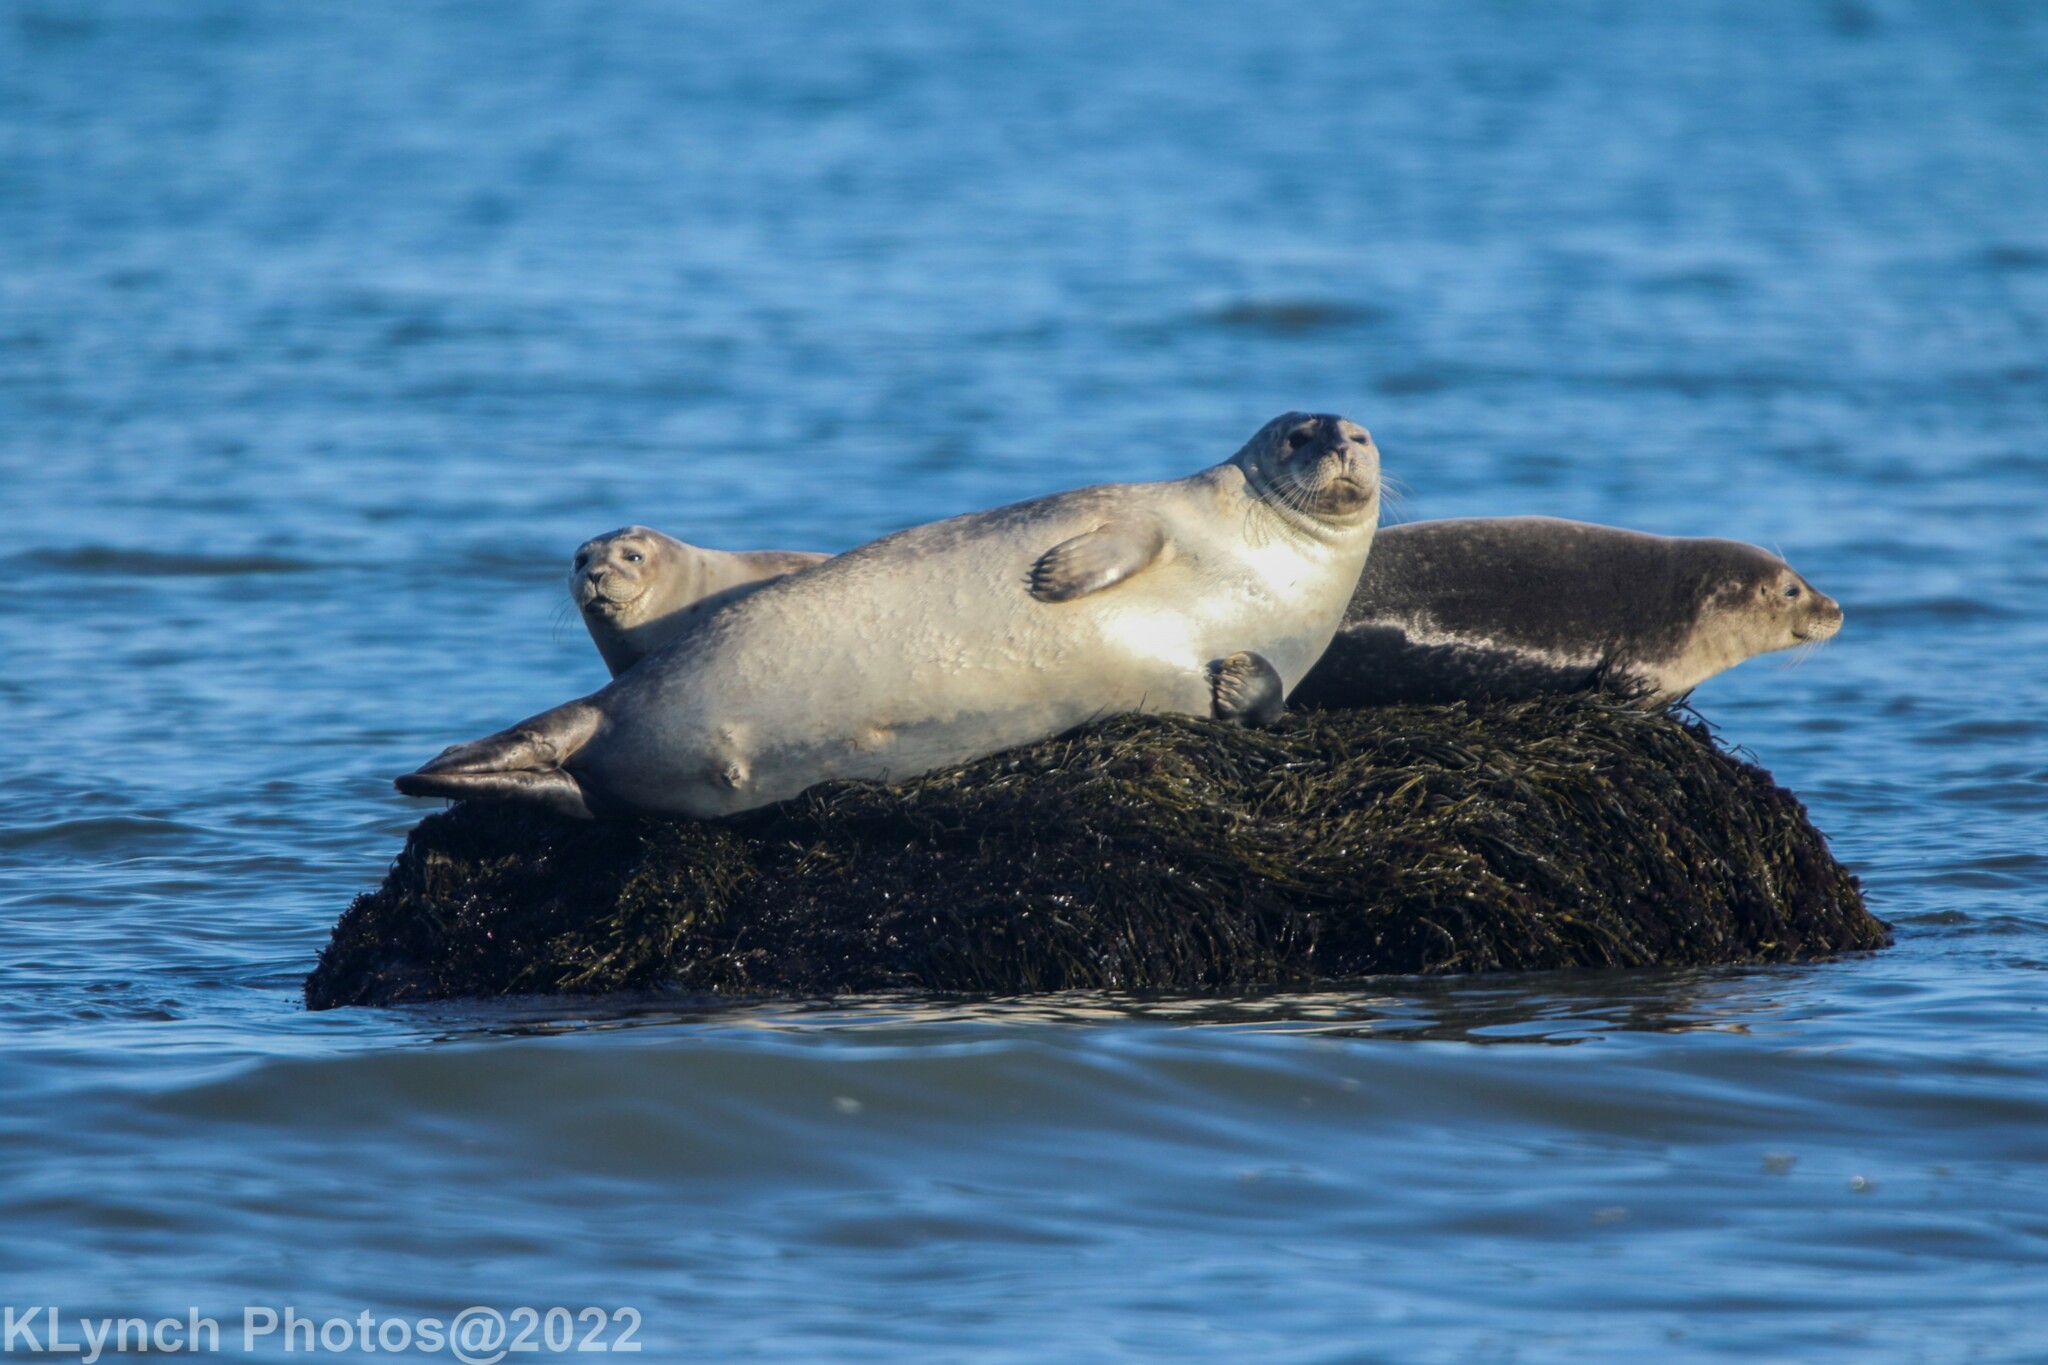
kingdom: Animalia
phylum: Chordata
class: Mammalia
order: Carnivora
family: Phocidae
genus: Phoca
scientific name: Phoca vitulina
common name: Harbor seal
